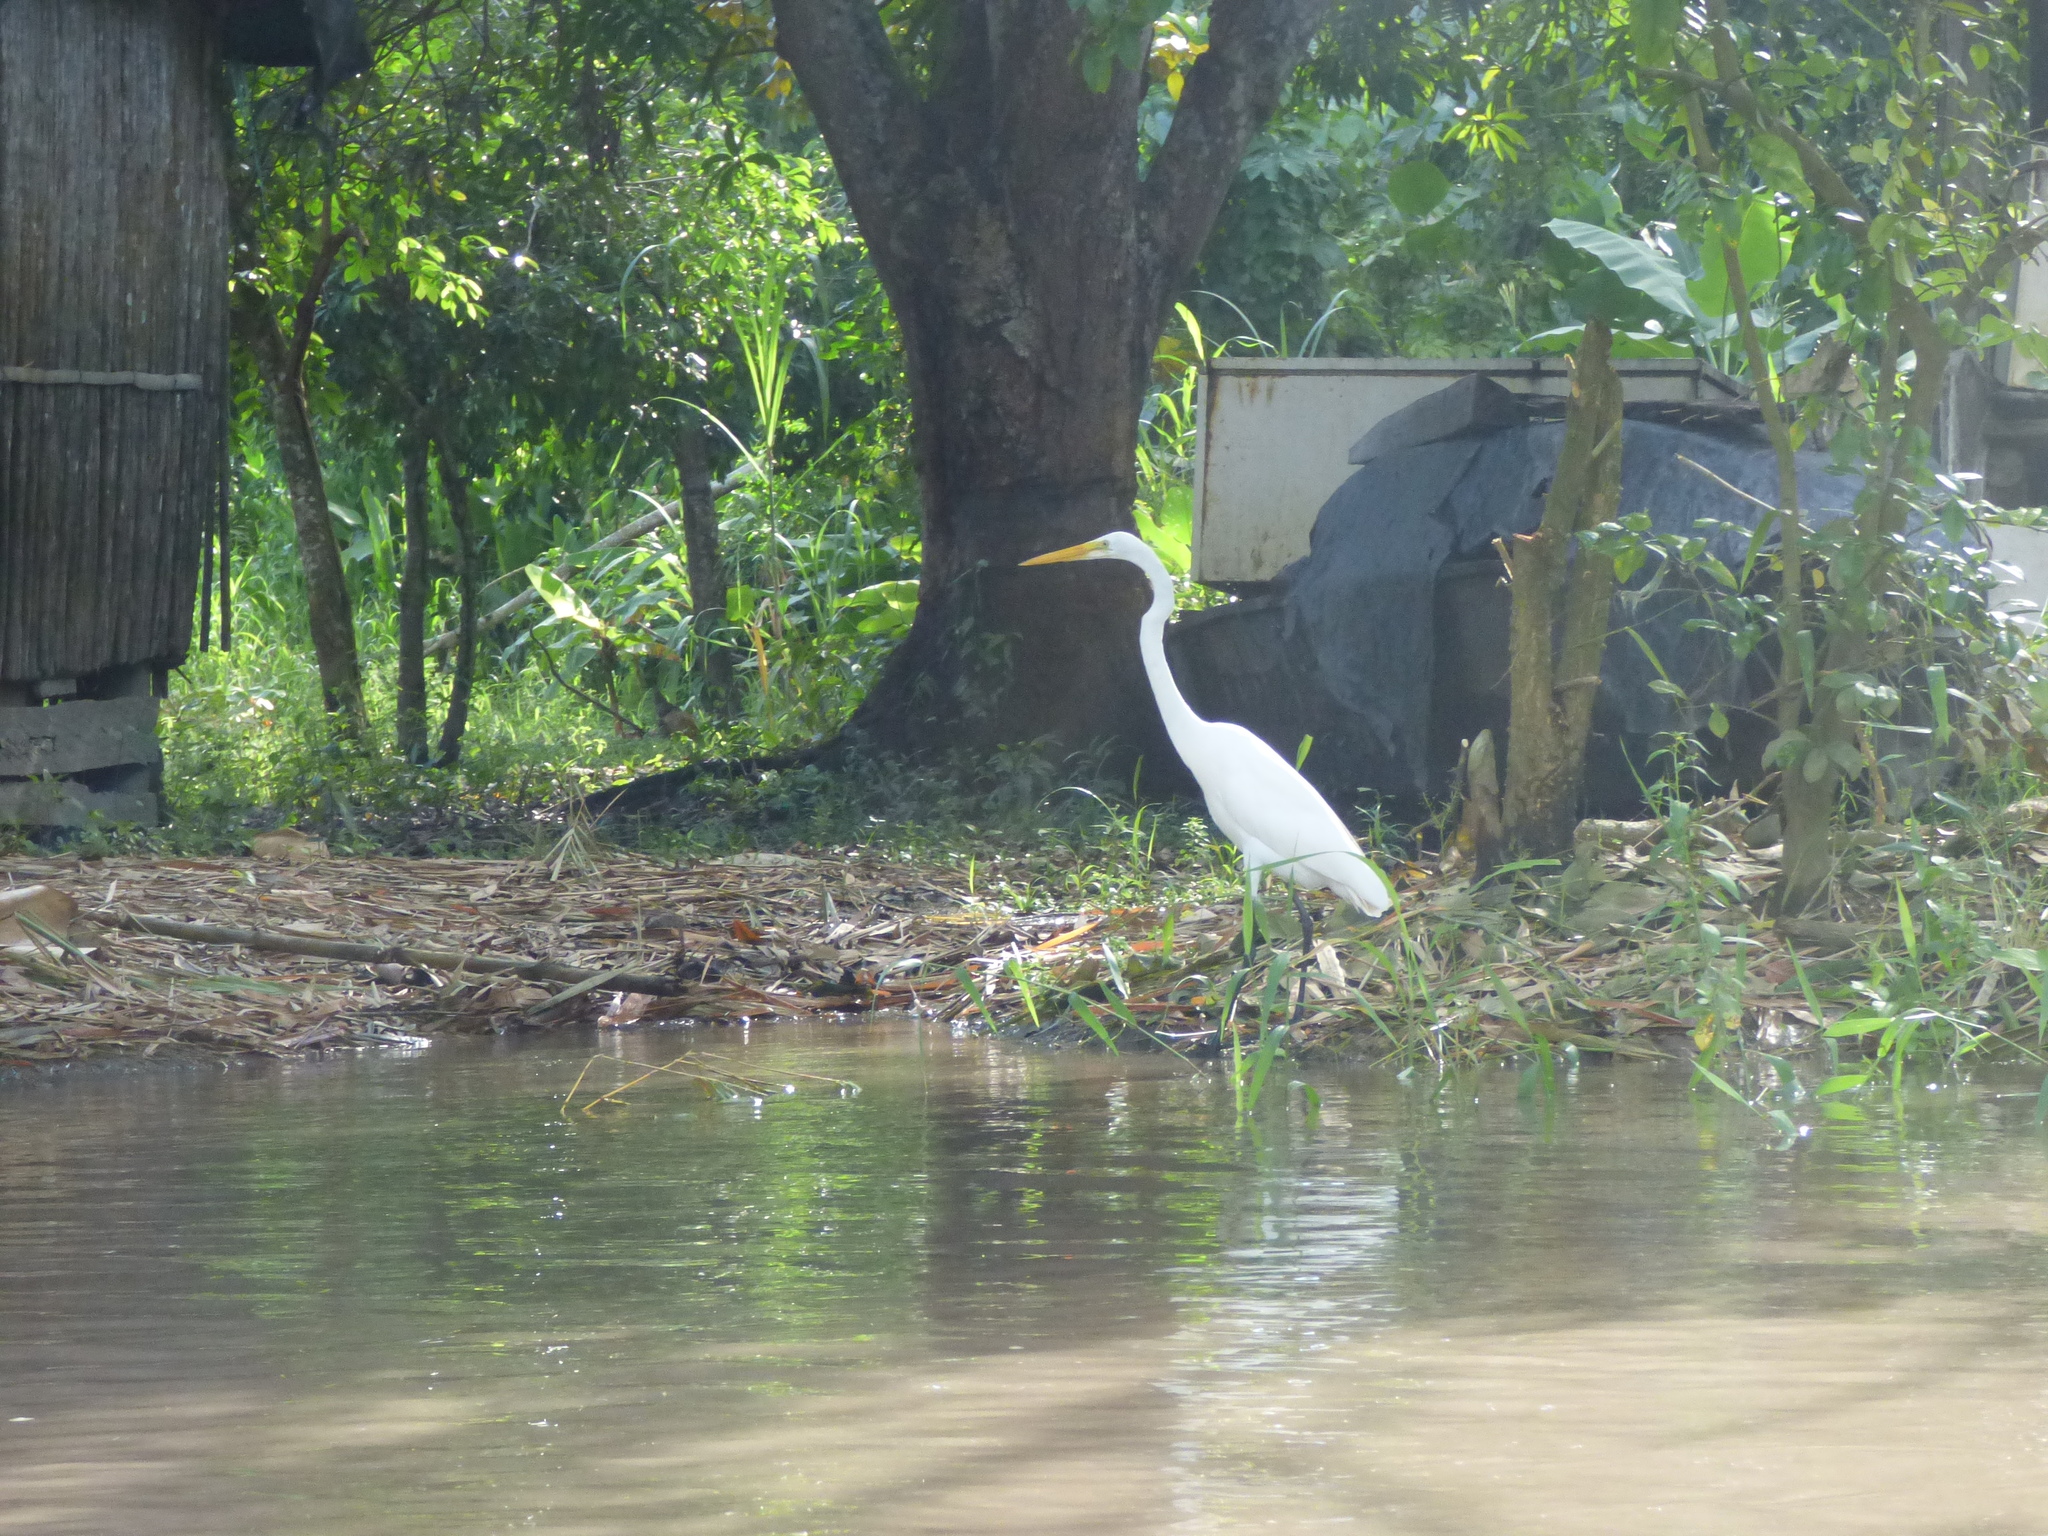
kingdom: Animalia
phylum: Chordata
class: Aves
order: Pelecaniformes
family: Ardeidae
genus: Ardea
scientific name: Ardea alba
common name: Great egret
